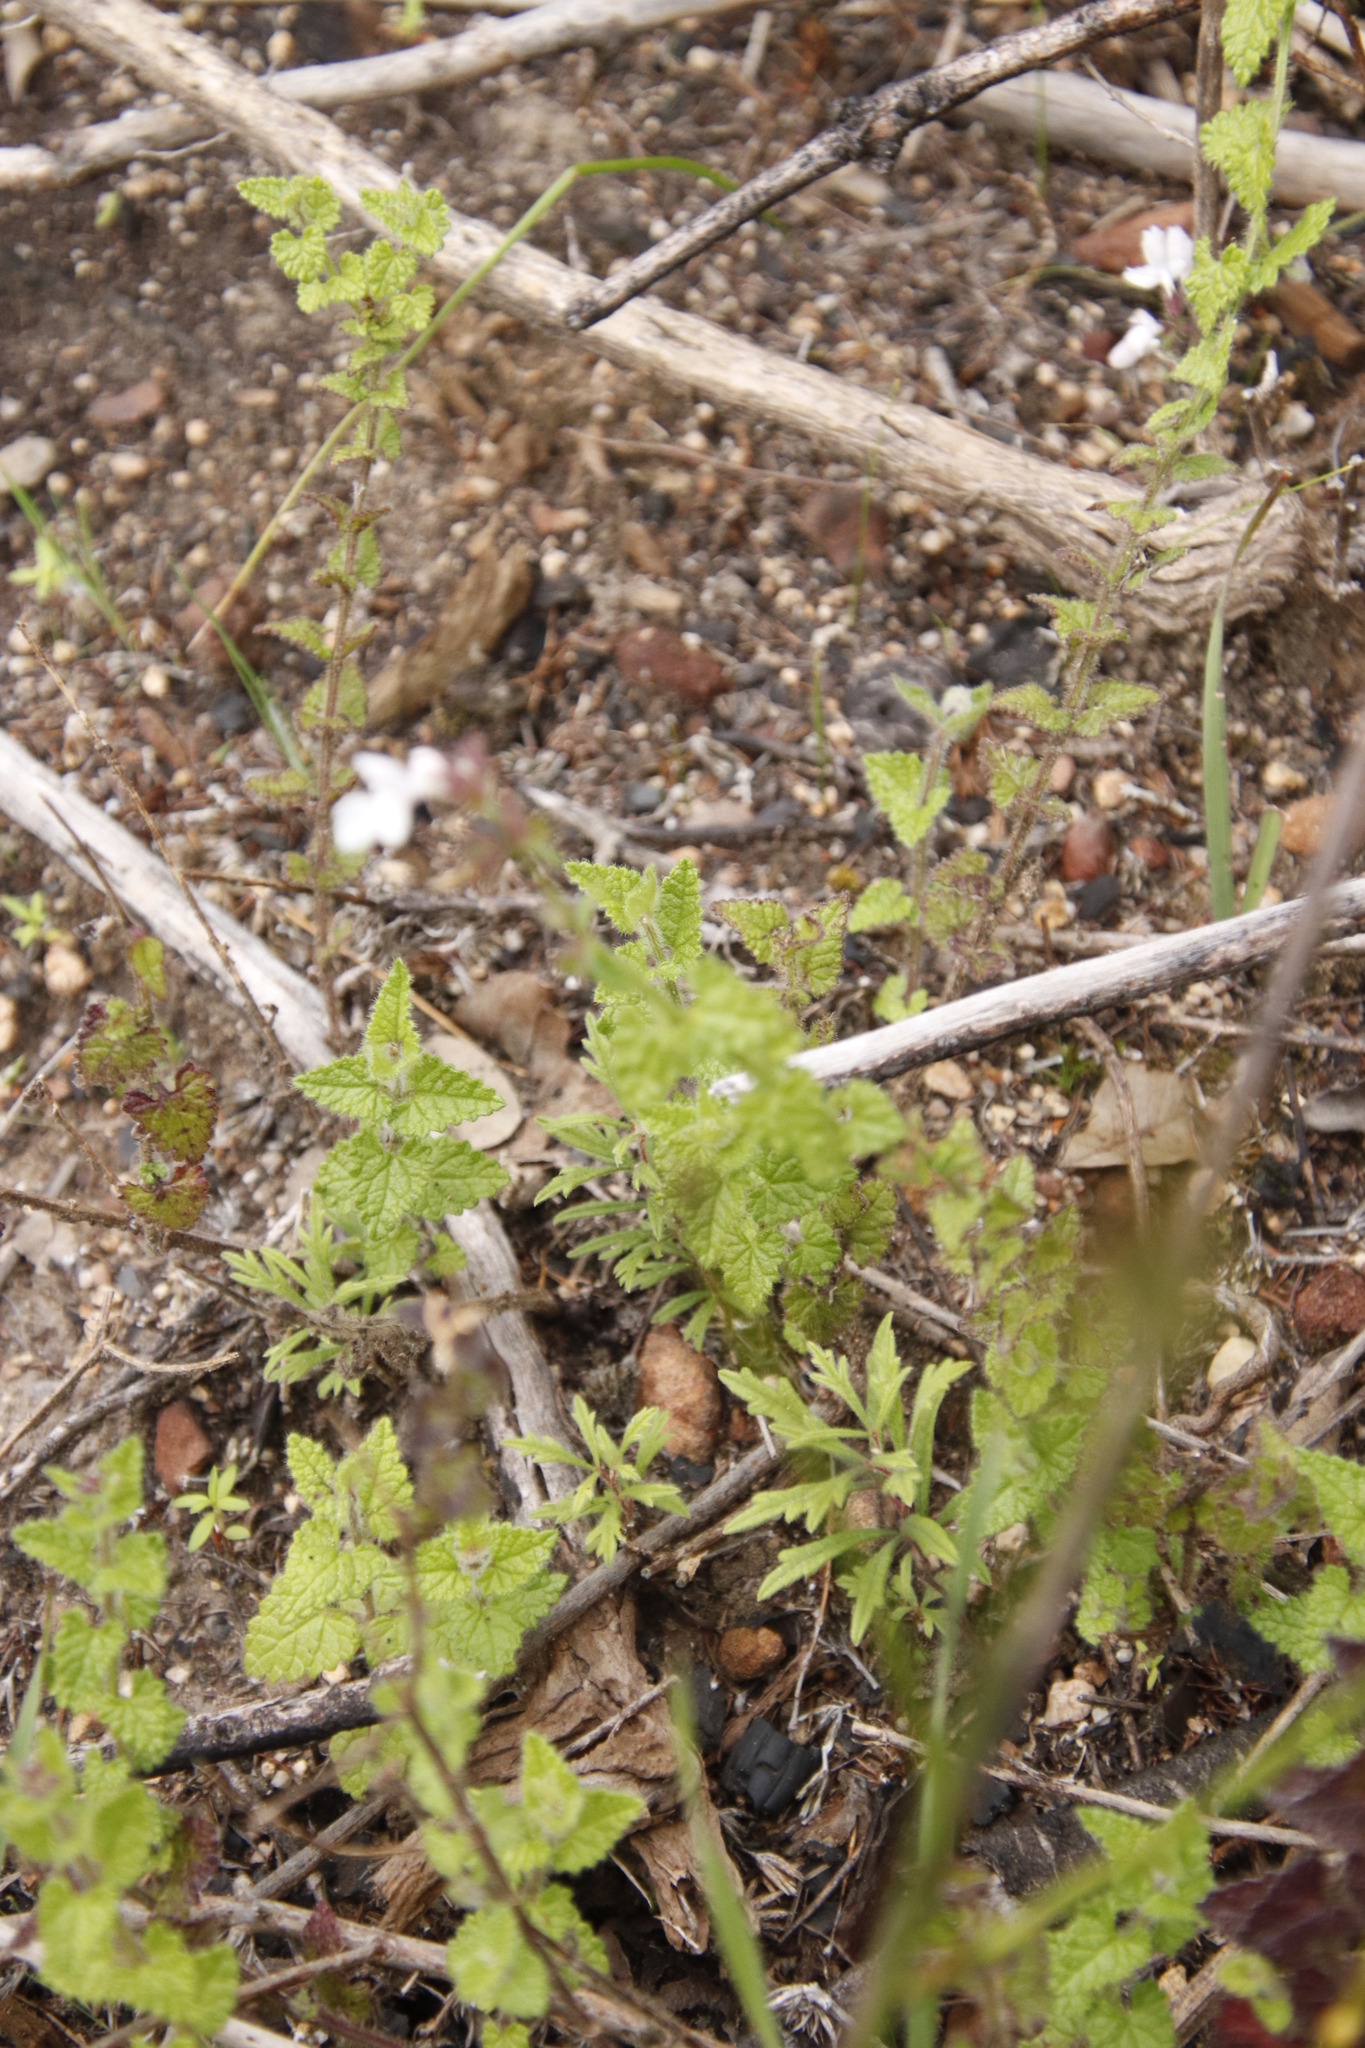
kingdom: Plantae
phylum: Tracheophyta
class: Magnoliopsida
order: Lamiales
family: Lamiaceae
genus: Stachys
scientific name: Stachys aethiopica
